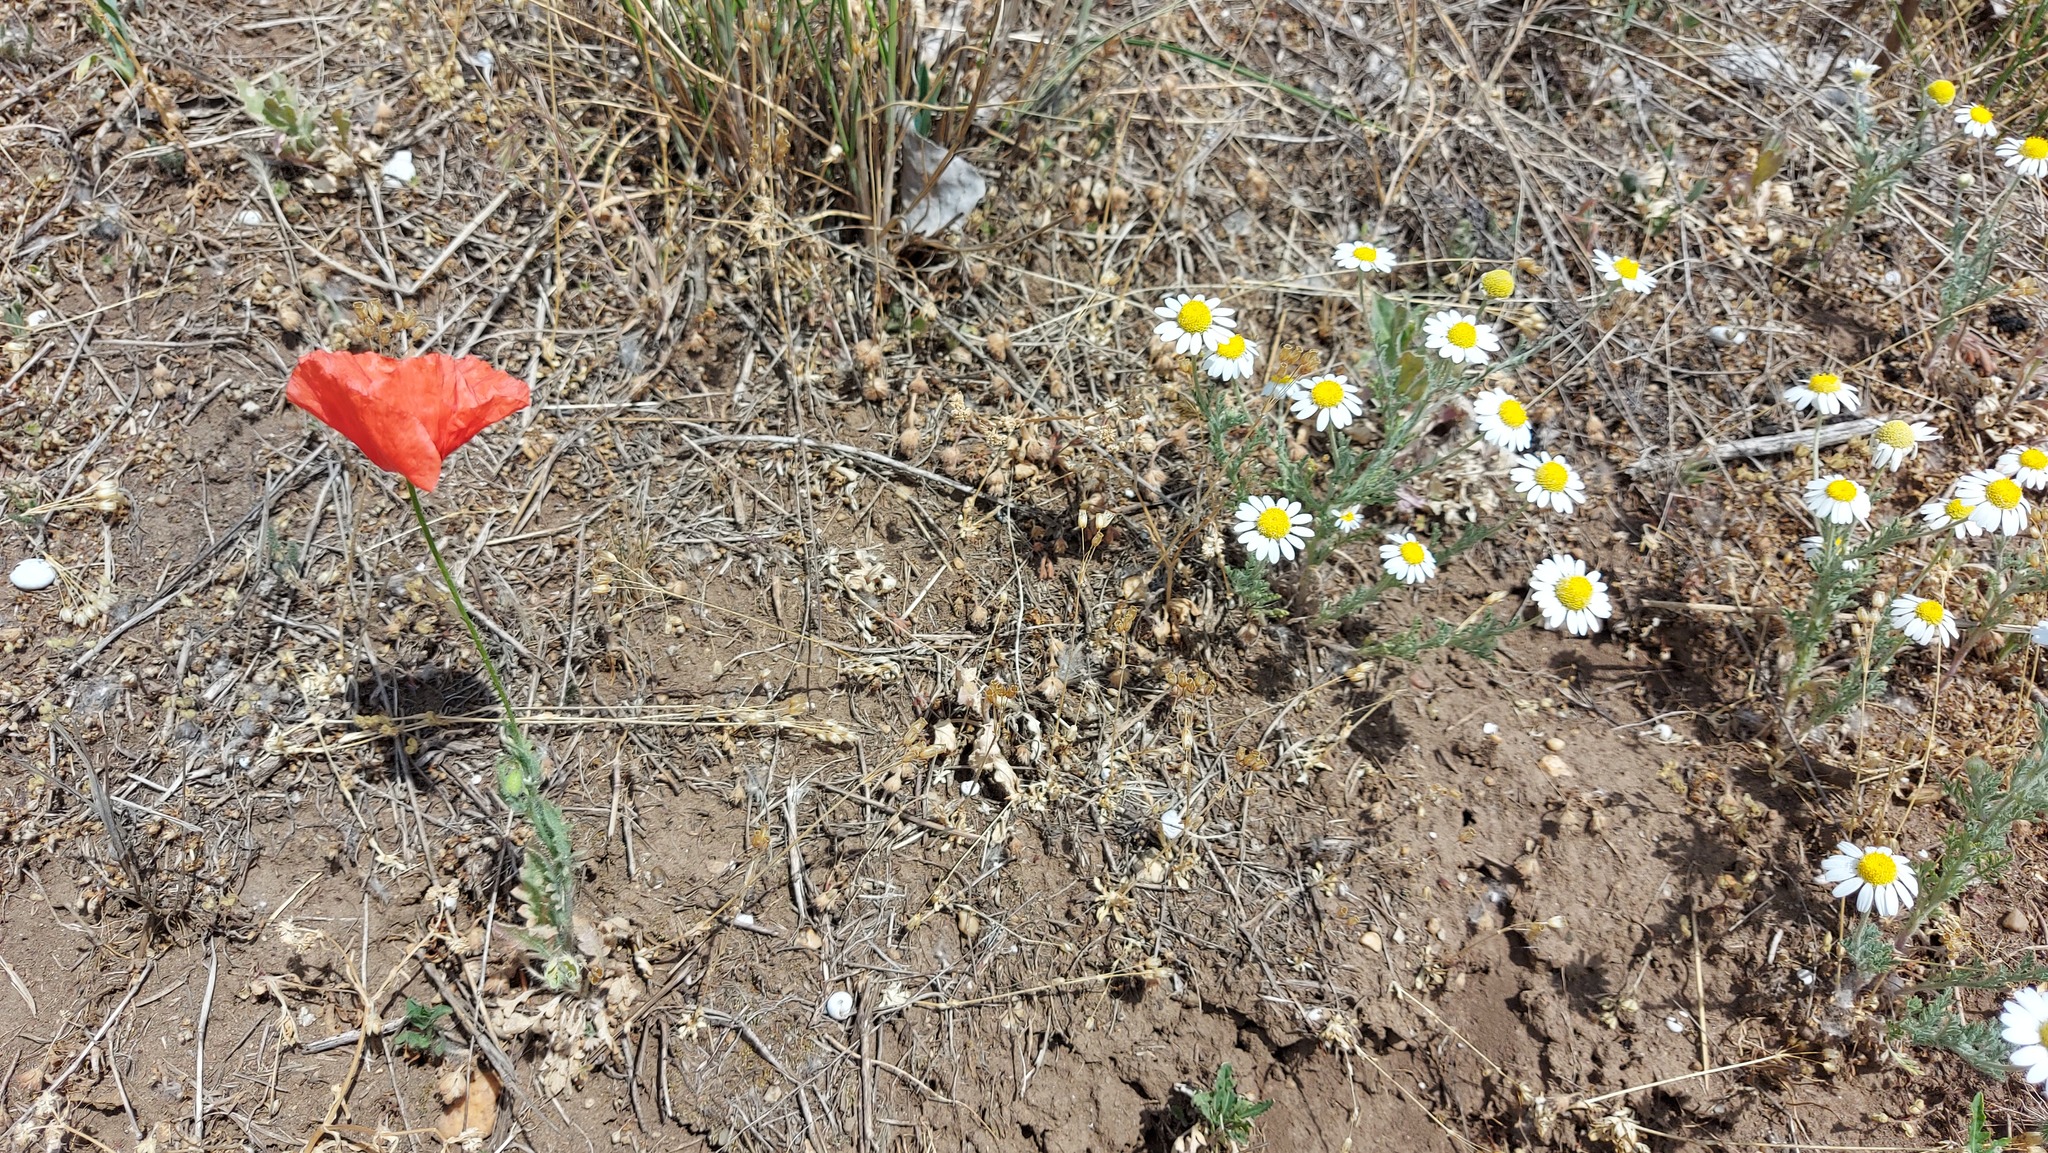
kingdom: Plantae
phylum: Tracheophyta
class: Magnoliopsida
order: Asterales
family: Asteraceae
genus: Anthemis
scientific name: Anthemis ruthenica
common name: Eastern chamomile
